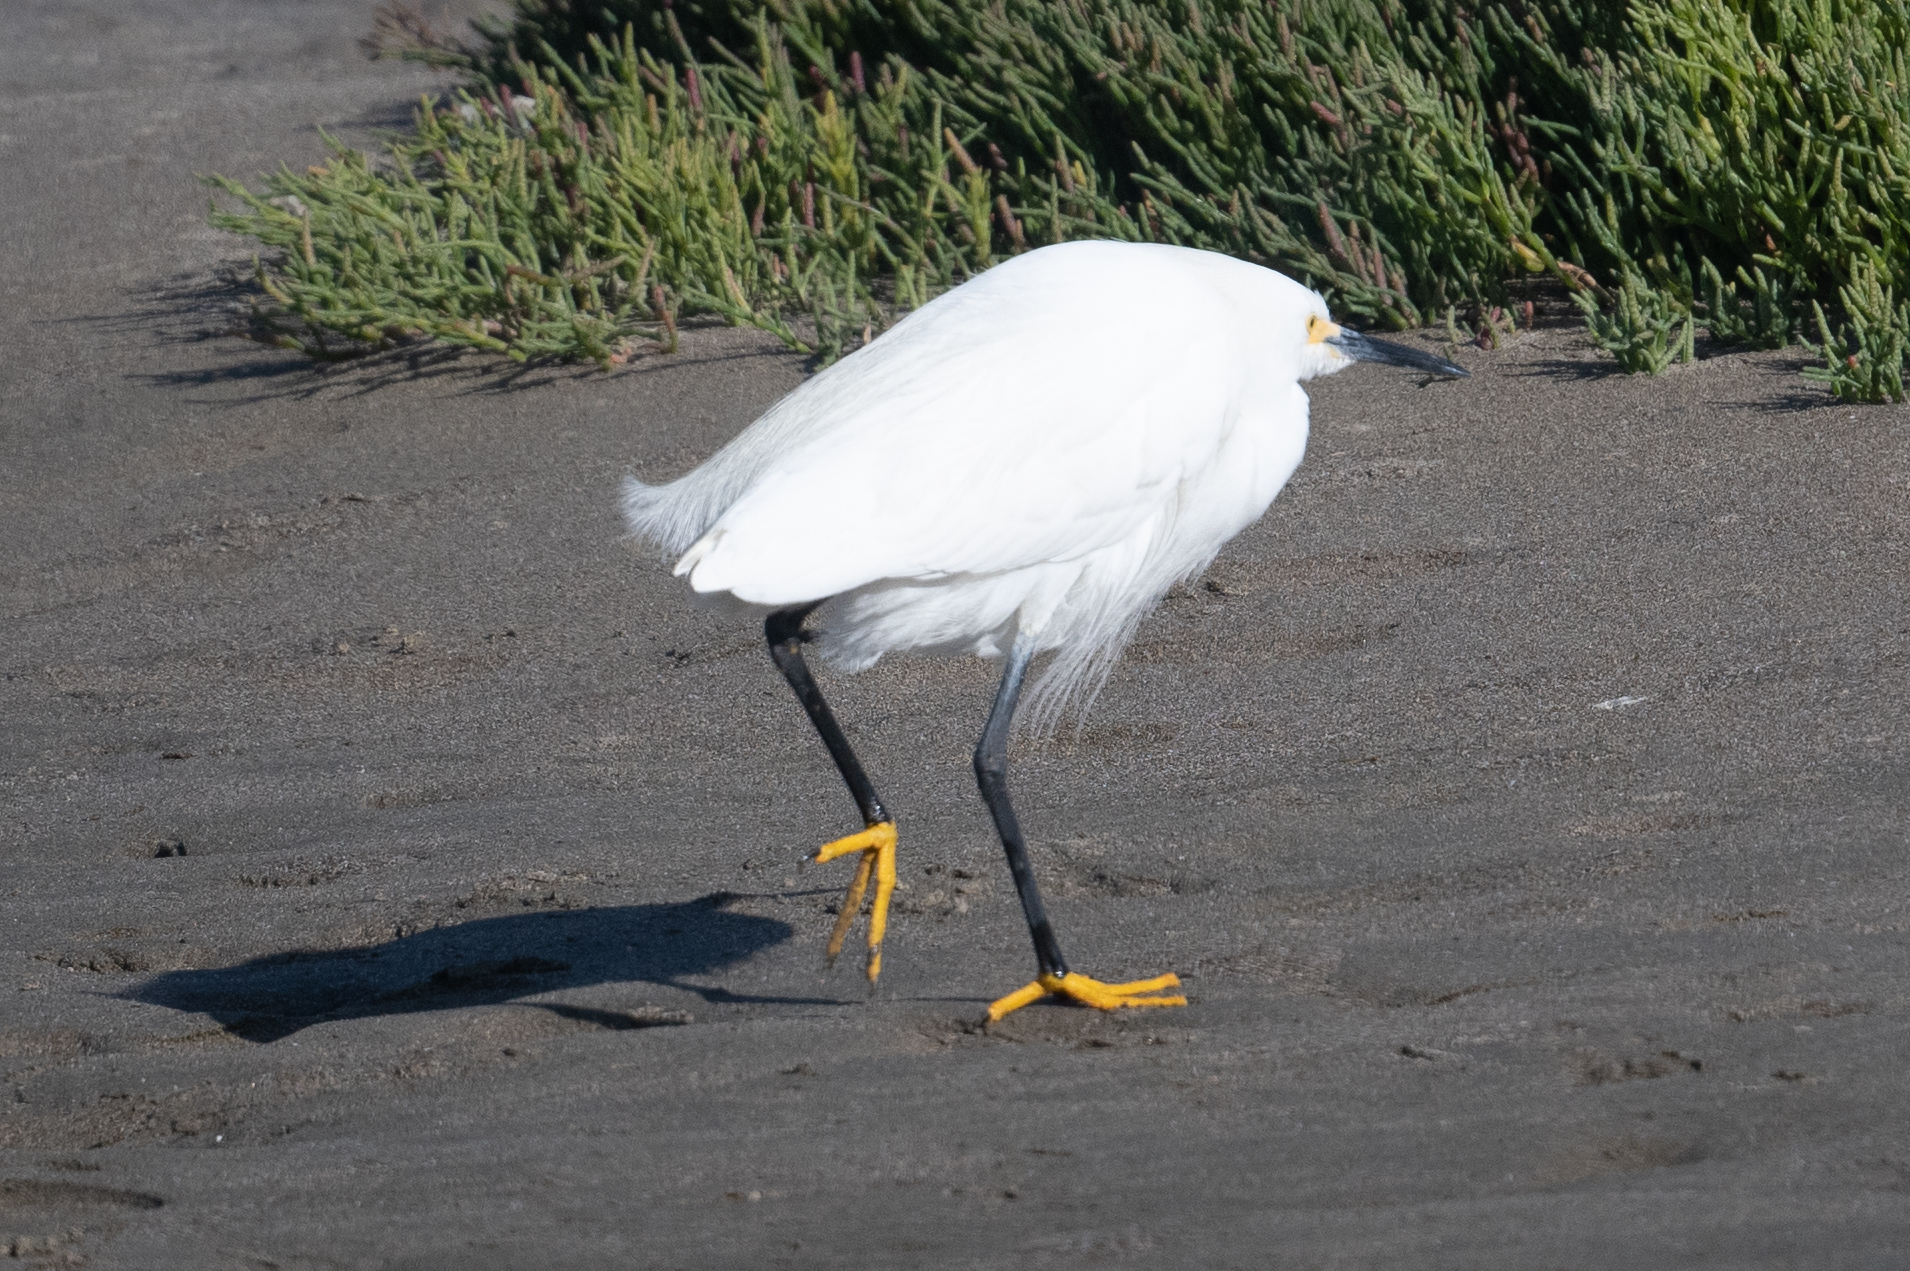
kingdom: Animalia
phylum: Chordata
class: Aves
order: Pelecaniformes
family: Ardeidae
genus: Egretta
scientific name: Egretta thula
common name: Snowy egret
